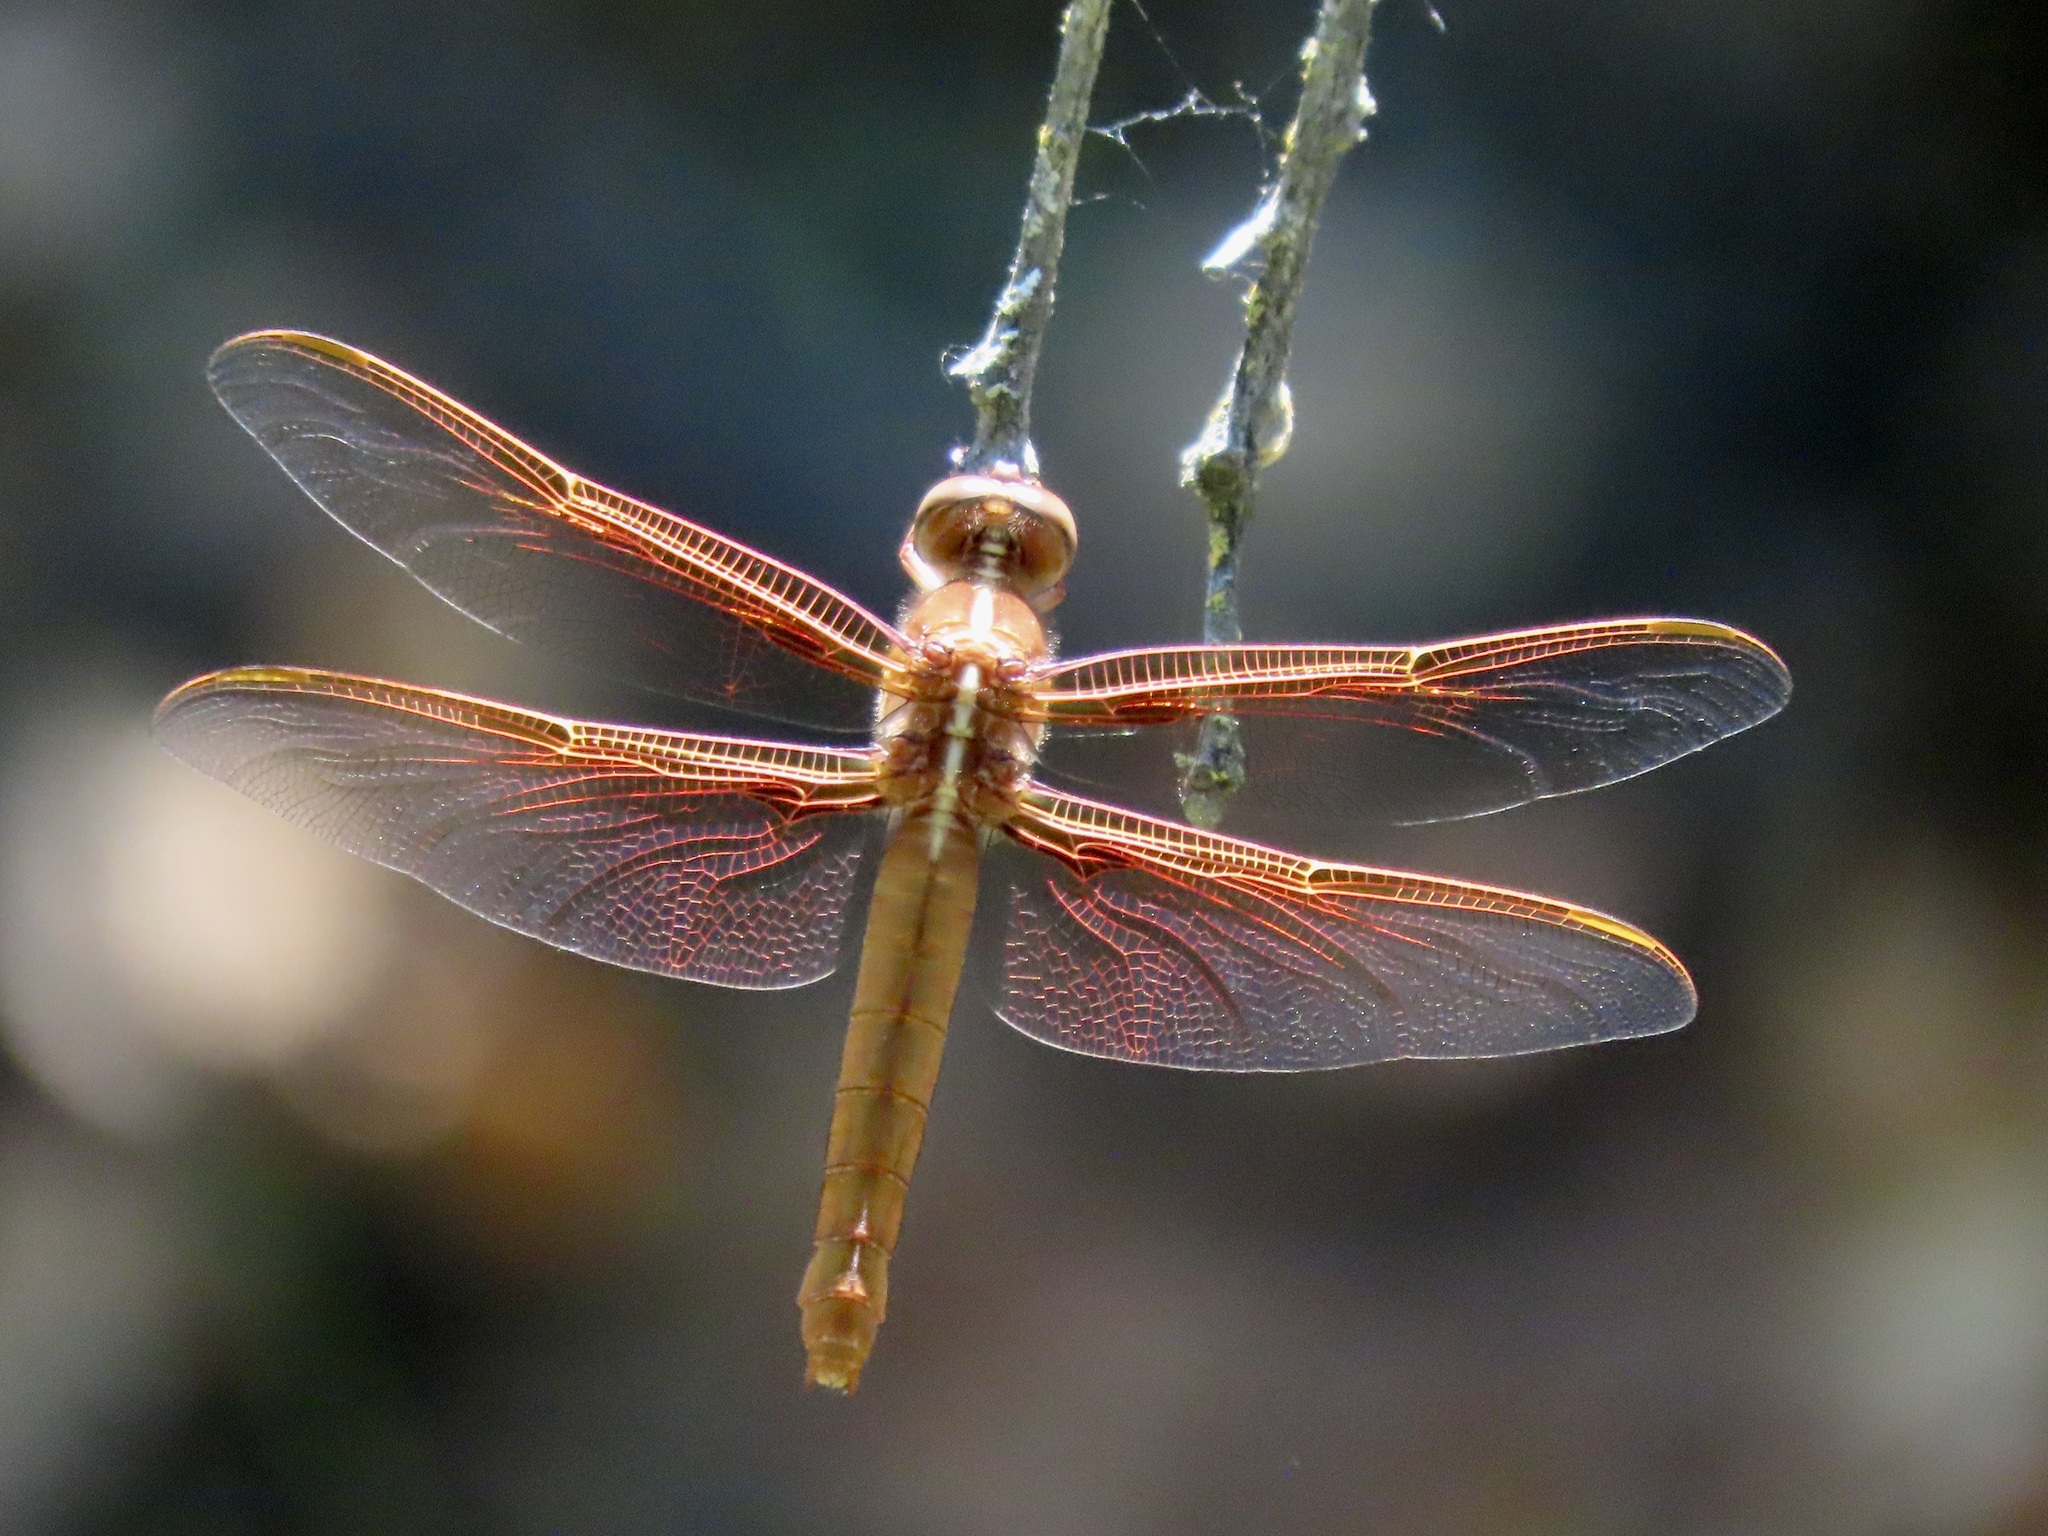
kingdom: Animalia
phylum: Arthropoda
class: Insecta
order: Odonata
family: Libellulidae
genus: Libellula
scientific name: Libellula saturata
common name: Flame skimmer
